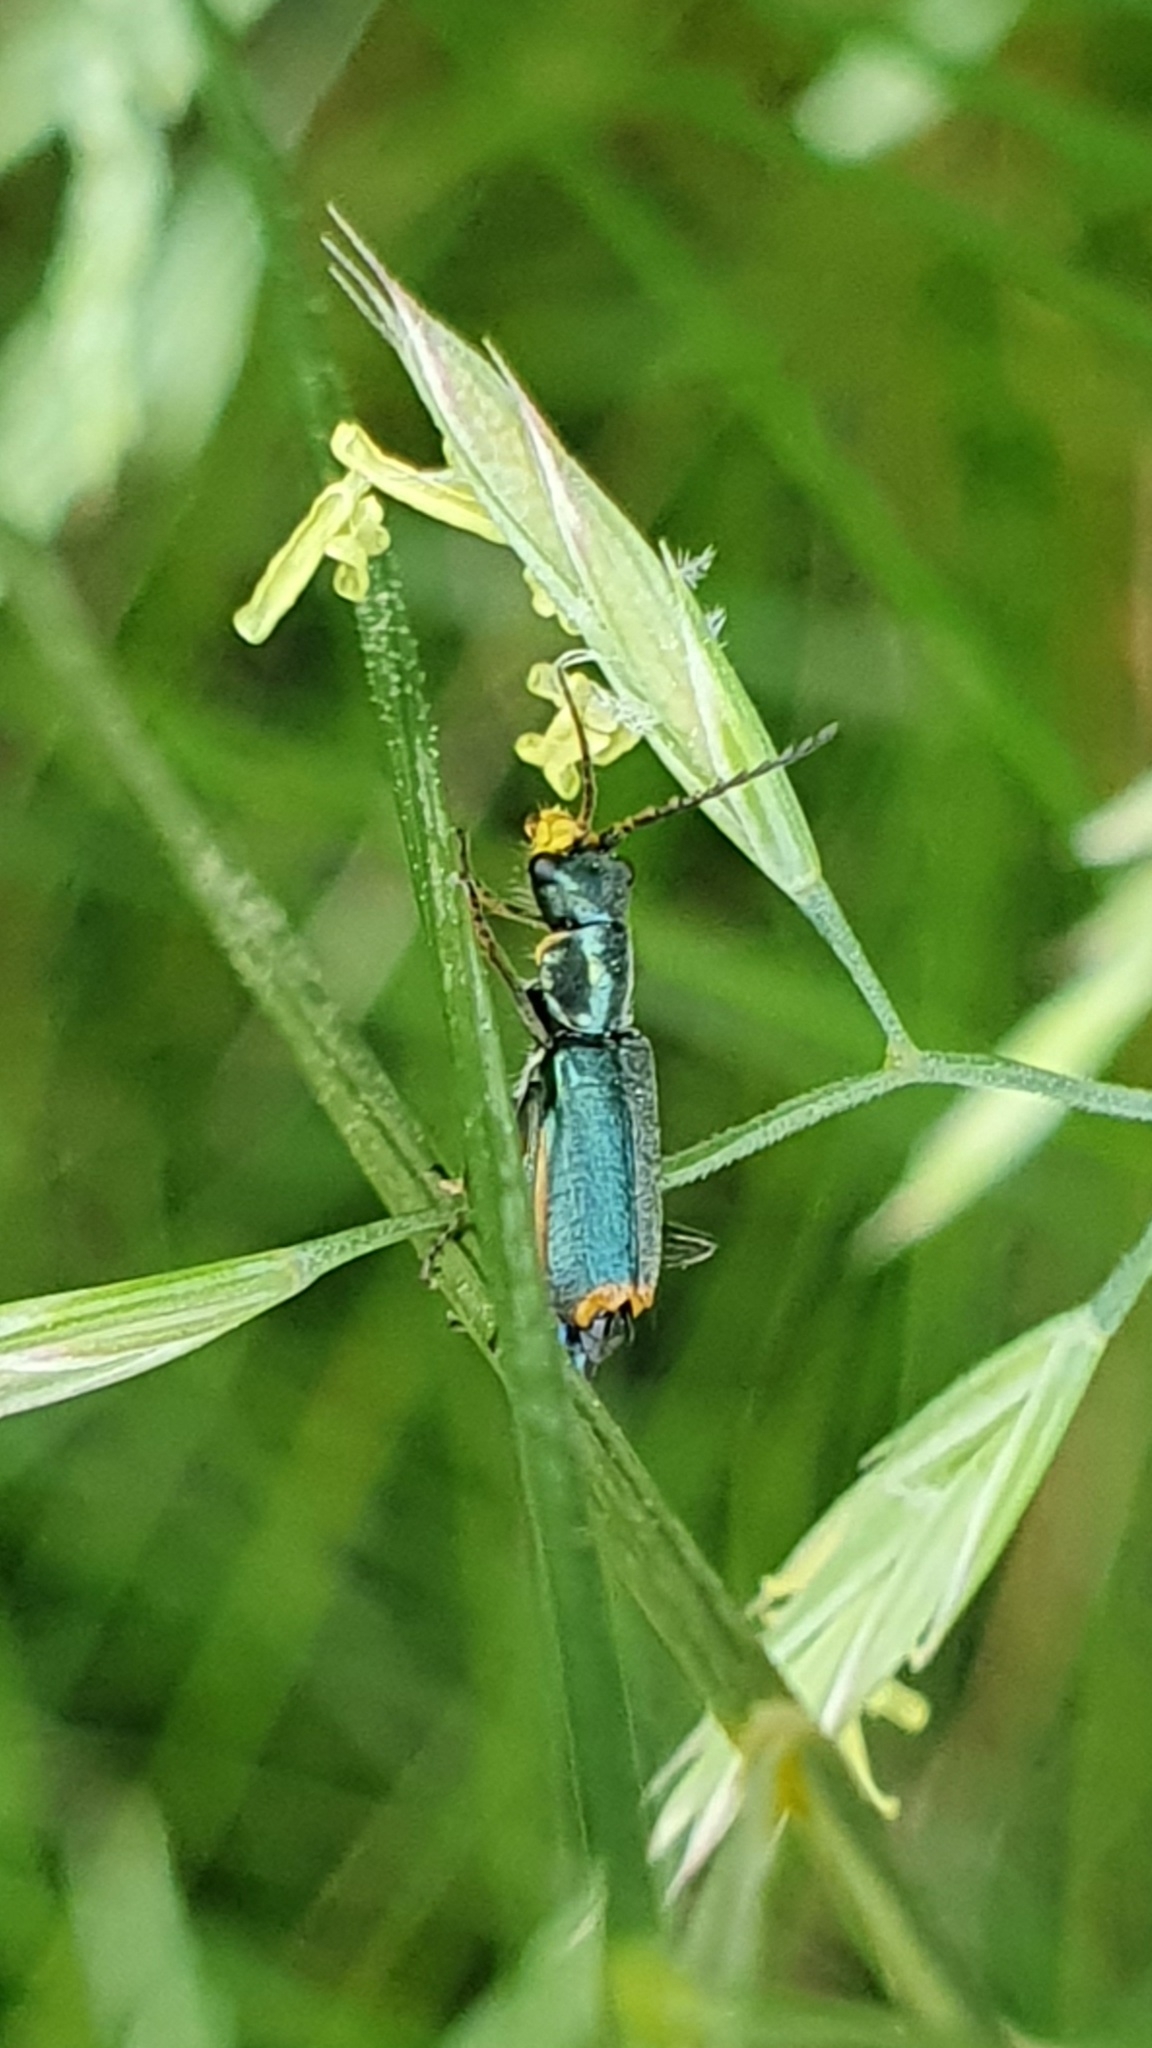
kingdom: Animalia
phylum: Arthropoda
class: Insecta
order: Coleoptera
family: Malachiidae
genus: Clanoptilus
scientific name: Clanoptilus marginellus
